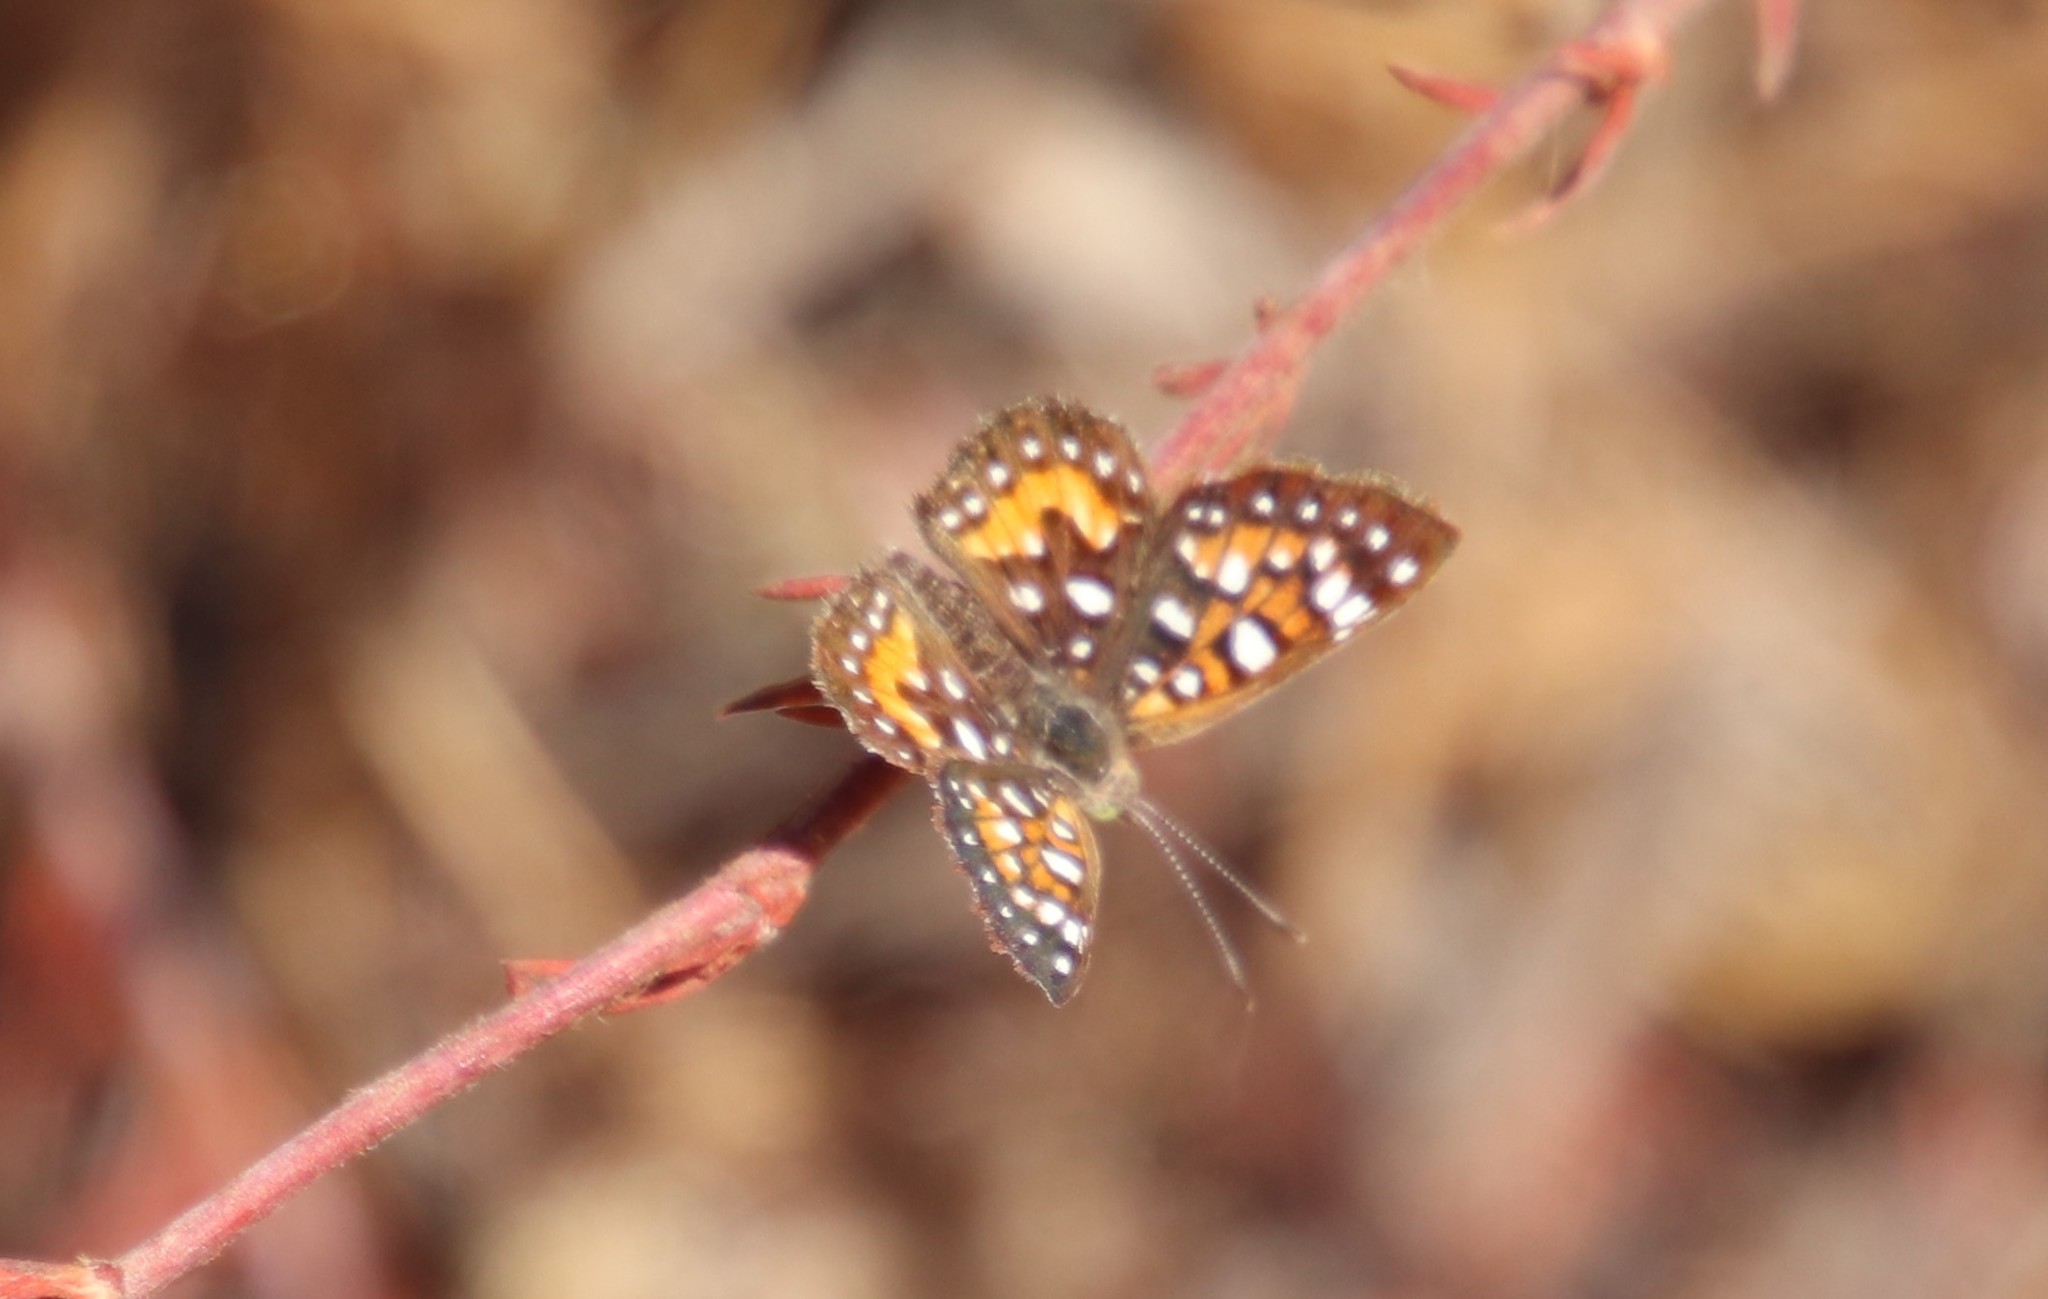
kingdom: Animalia
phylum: Arthropoda
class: Insecta
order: Lepidoptera
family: Riodinidae
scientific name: Riodinidae
